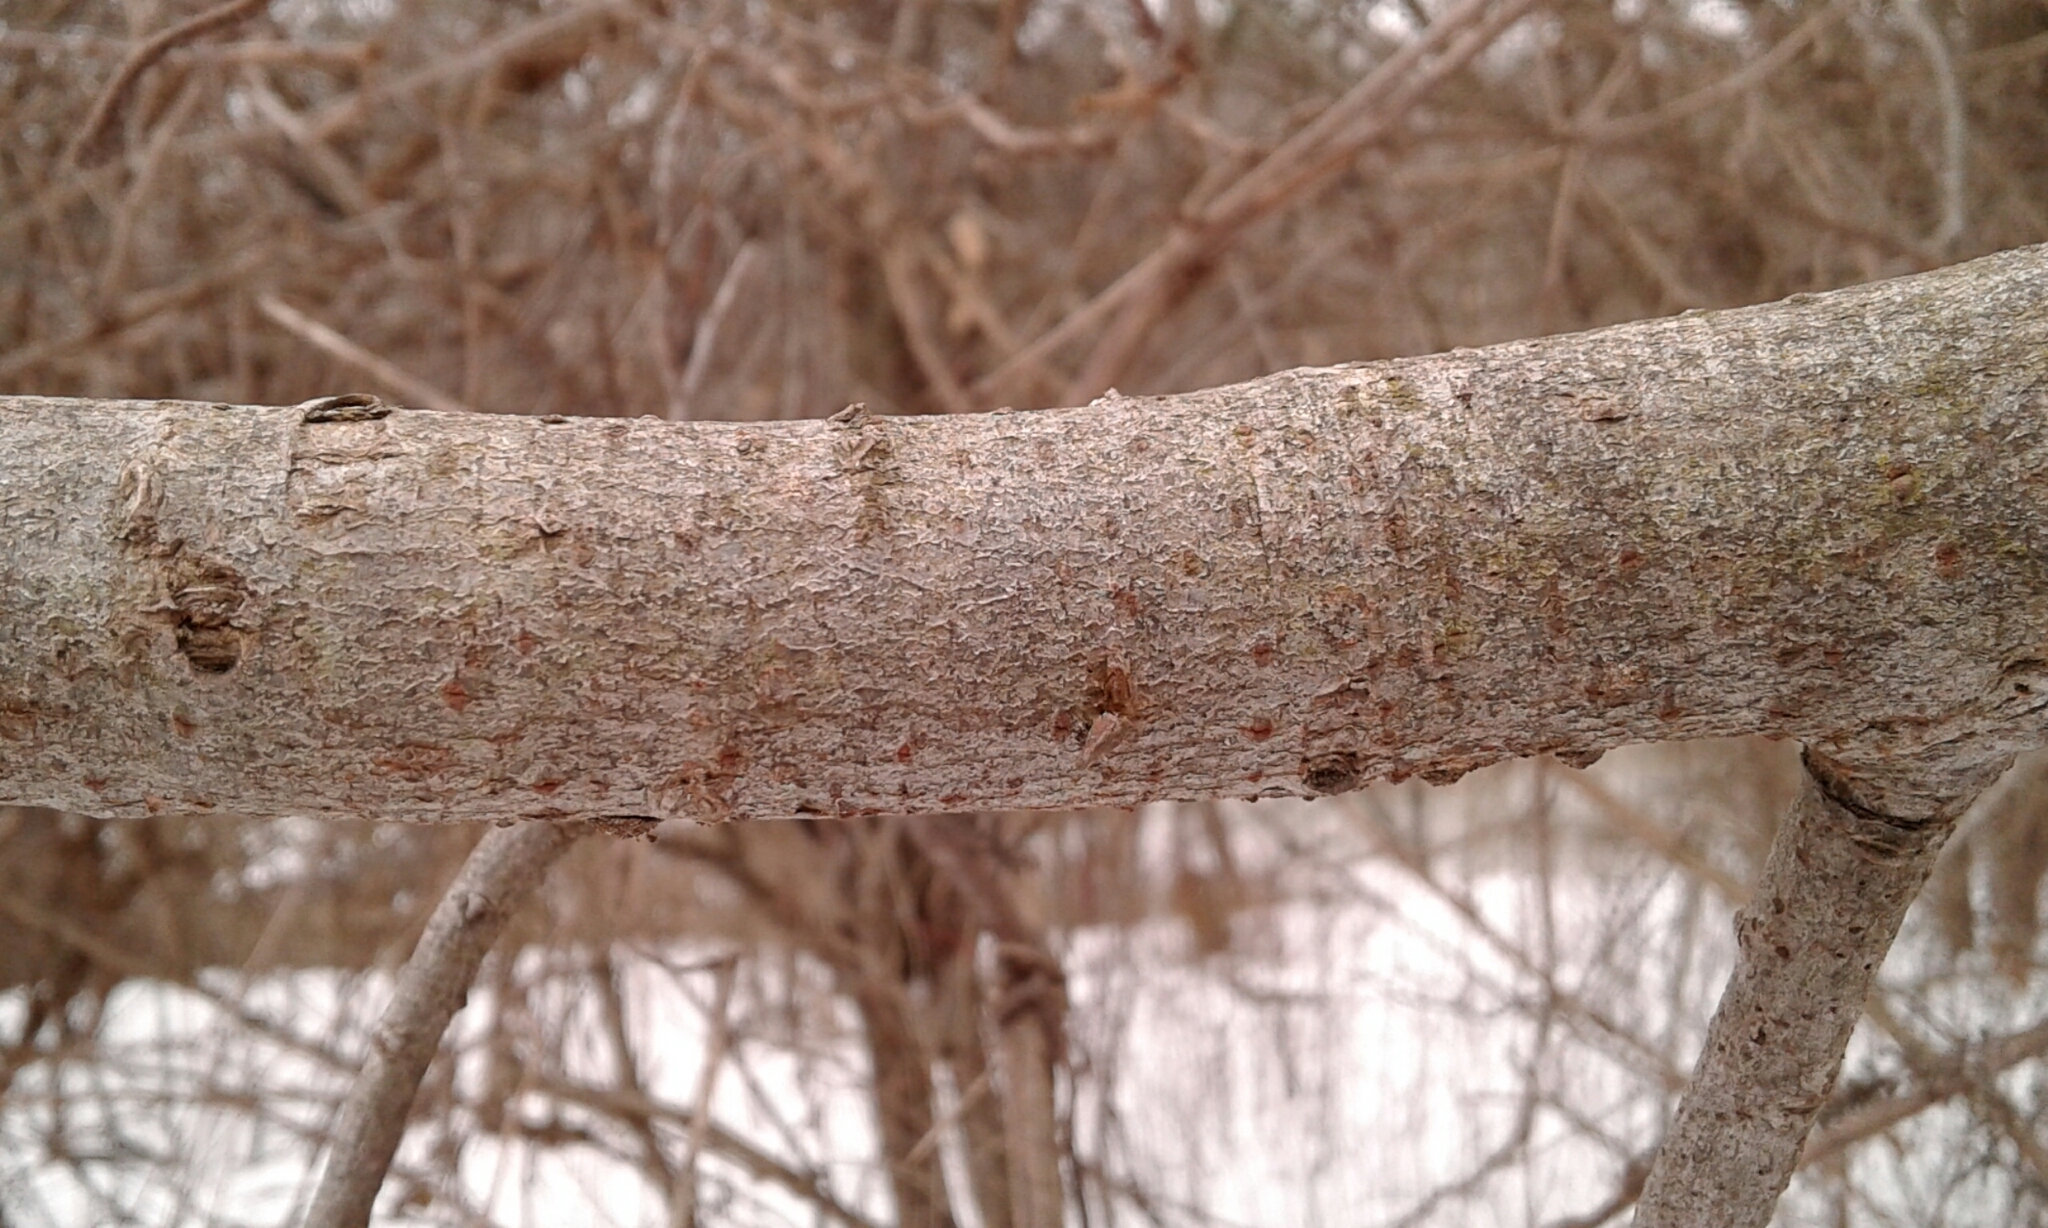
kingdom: Plantae
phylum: Tracheophyta
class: Magnoliopsida
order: Malpighiales
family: Salicaceae
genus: Salix
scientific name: Salix discolor
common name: Glaucous willow
